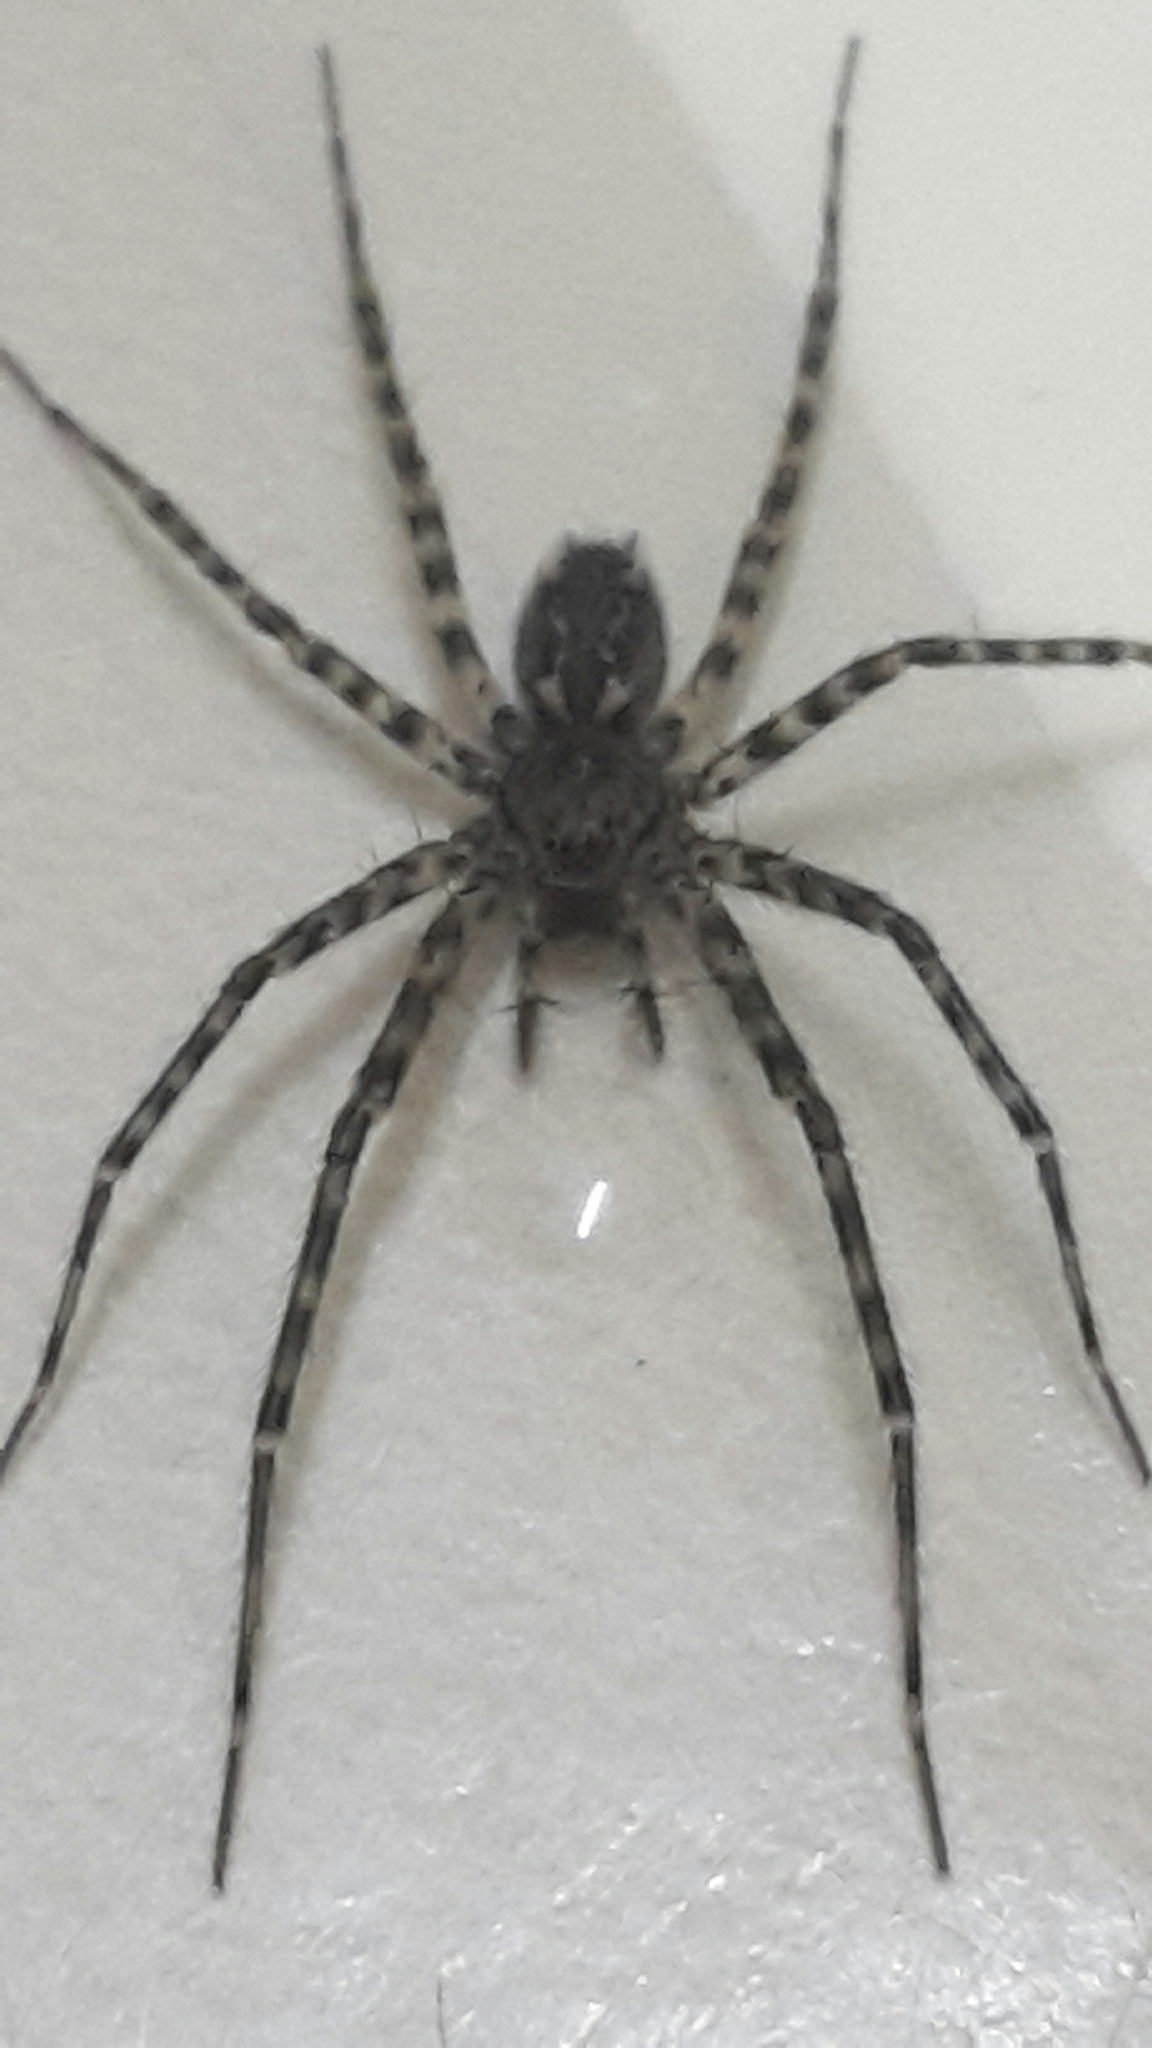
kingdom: Animalia
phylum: Arthropoda
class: Arachnida
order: Araneae
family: Stiphidiidae
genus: Stiphidion
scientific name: Stiphidion facetum
